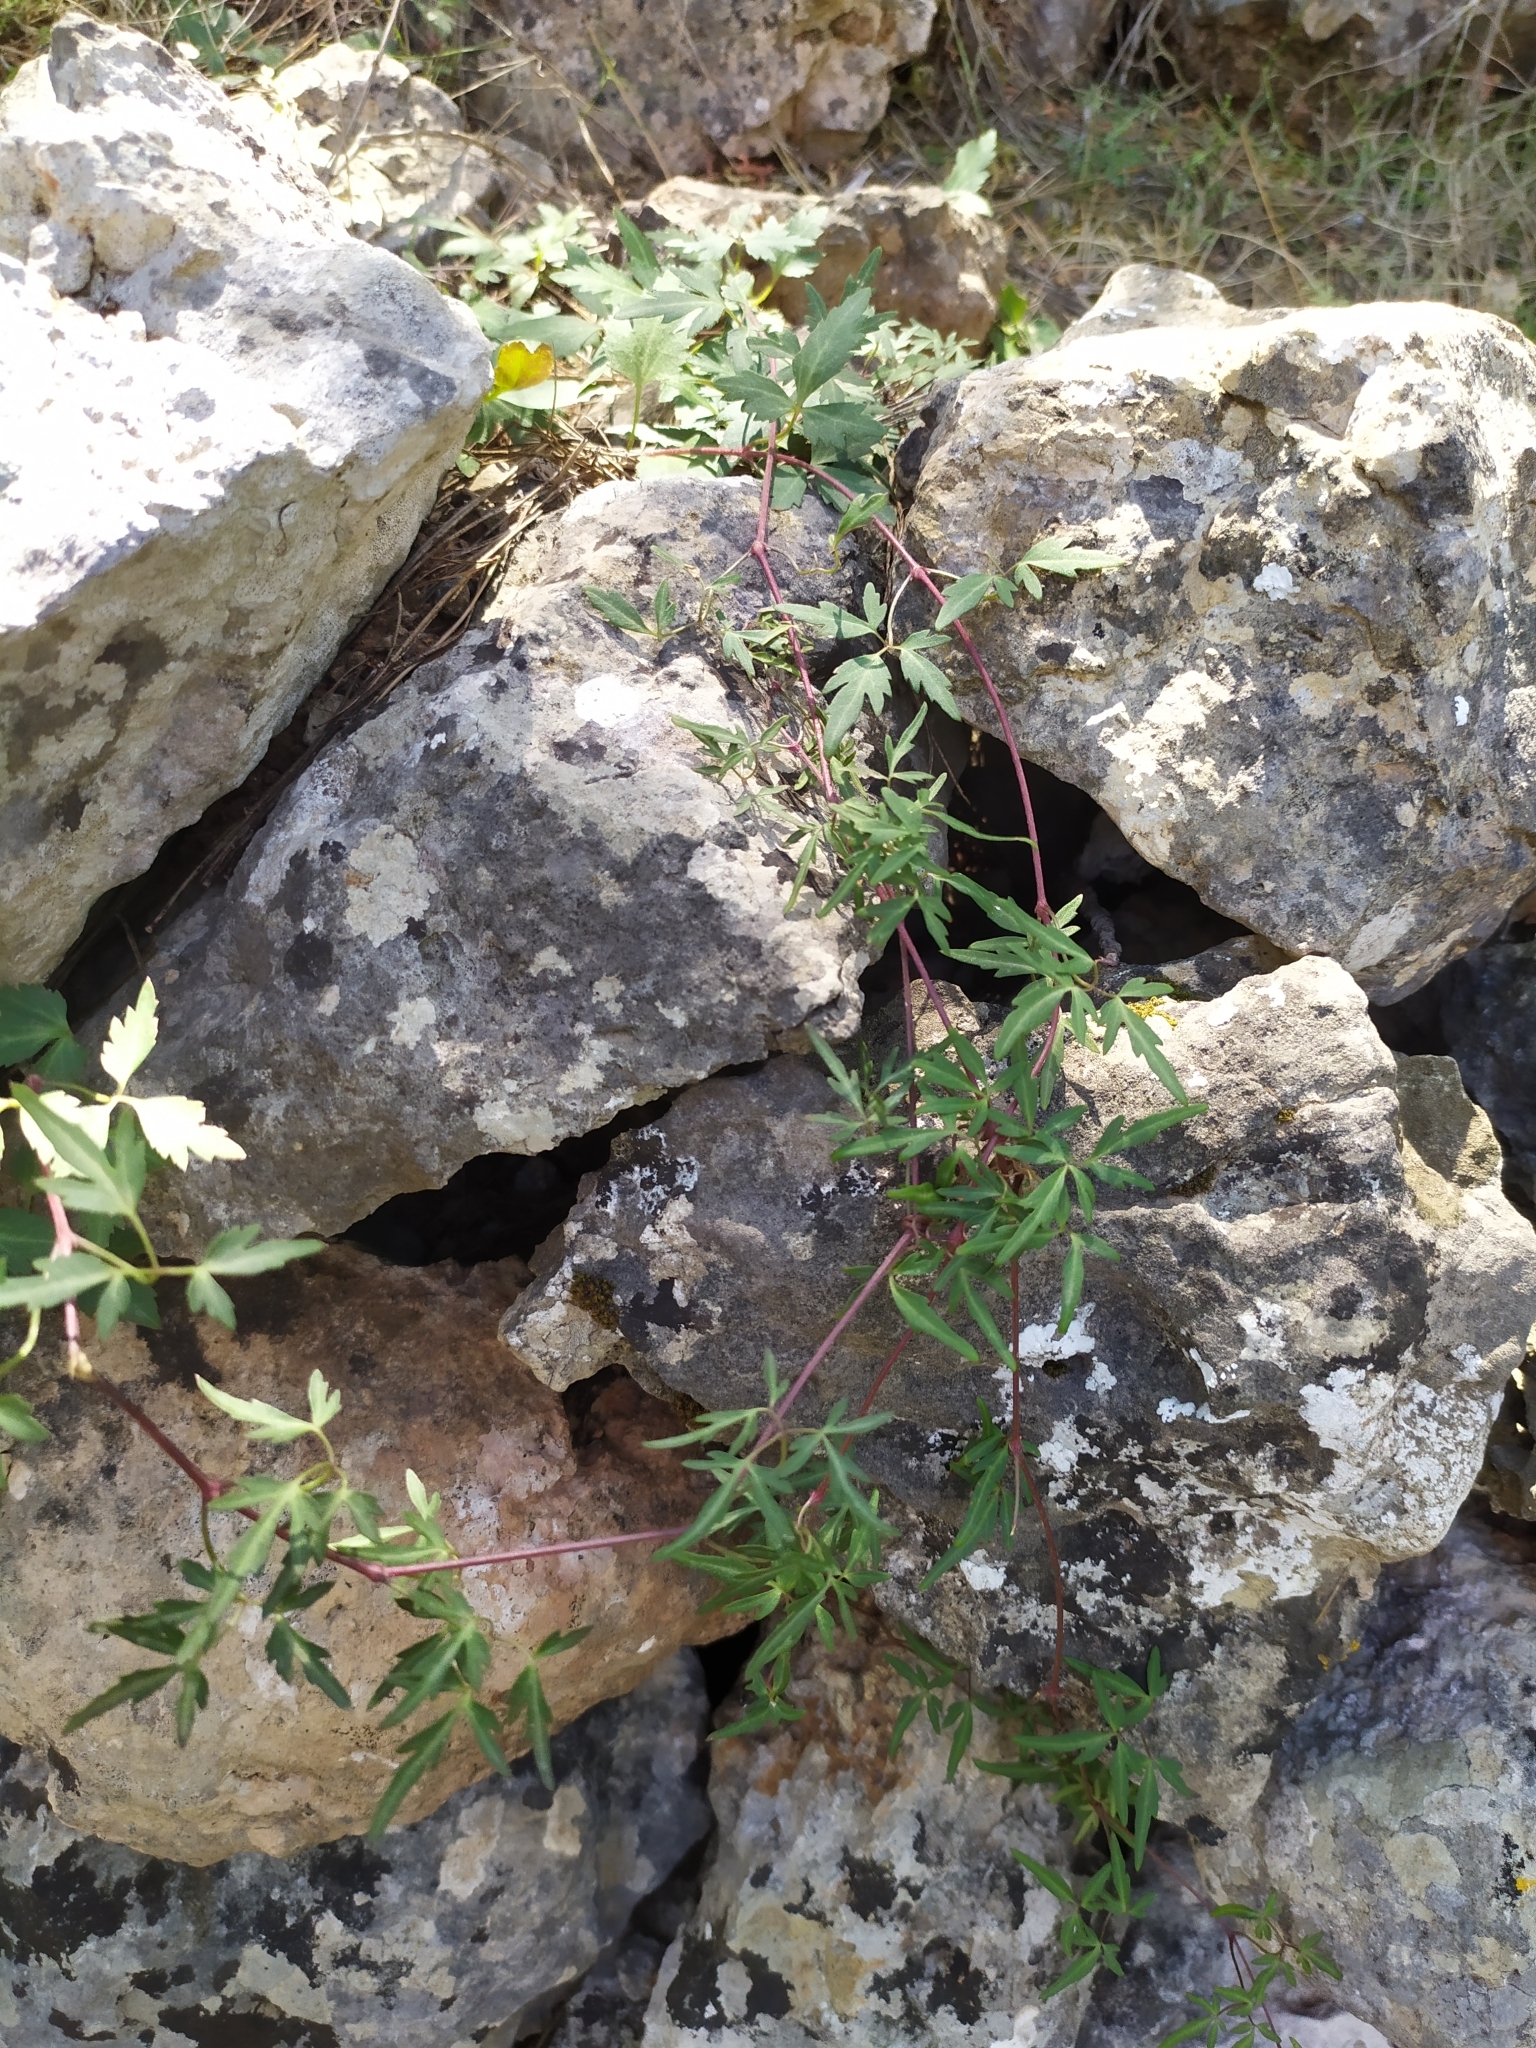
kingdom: Plantae
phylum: Tracheophyta
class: Magnoliopsida
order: Ranunculales
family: Ranunculaceae
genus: Clematis
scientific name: Clematis cirrhosa
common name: Early virgin's-bower
